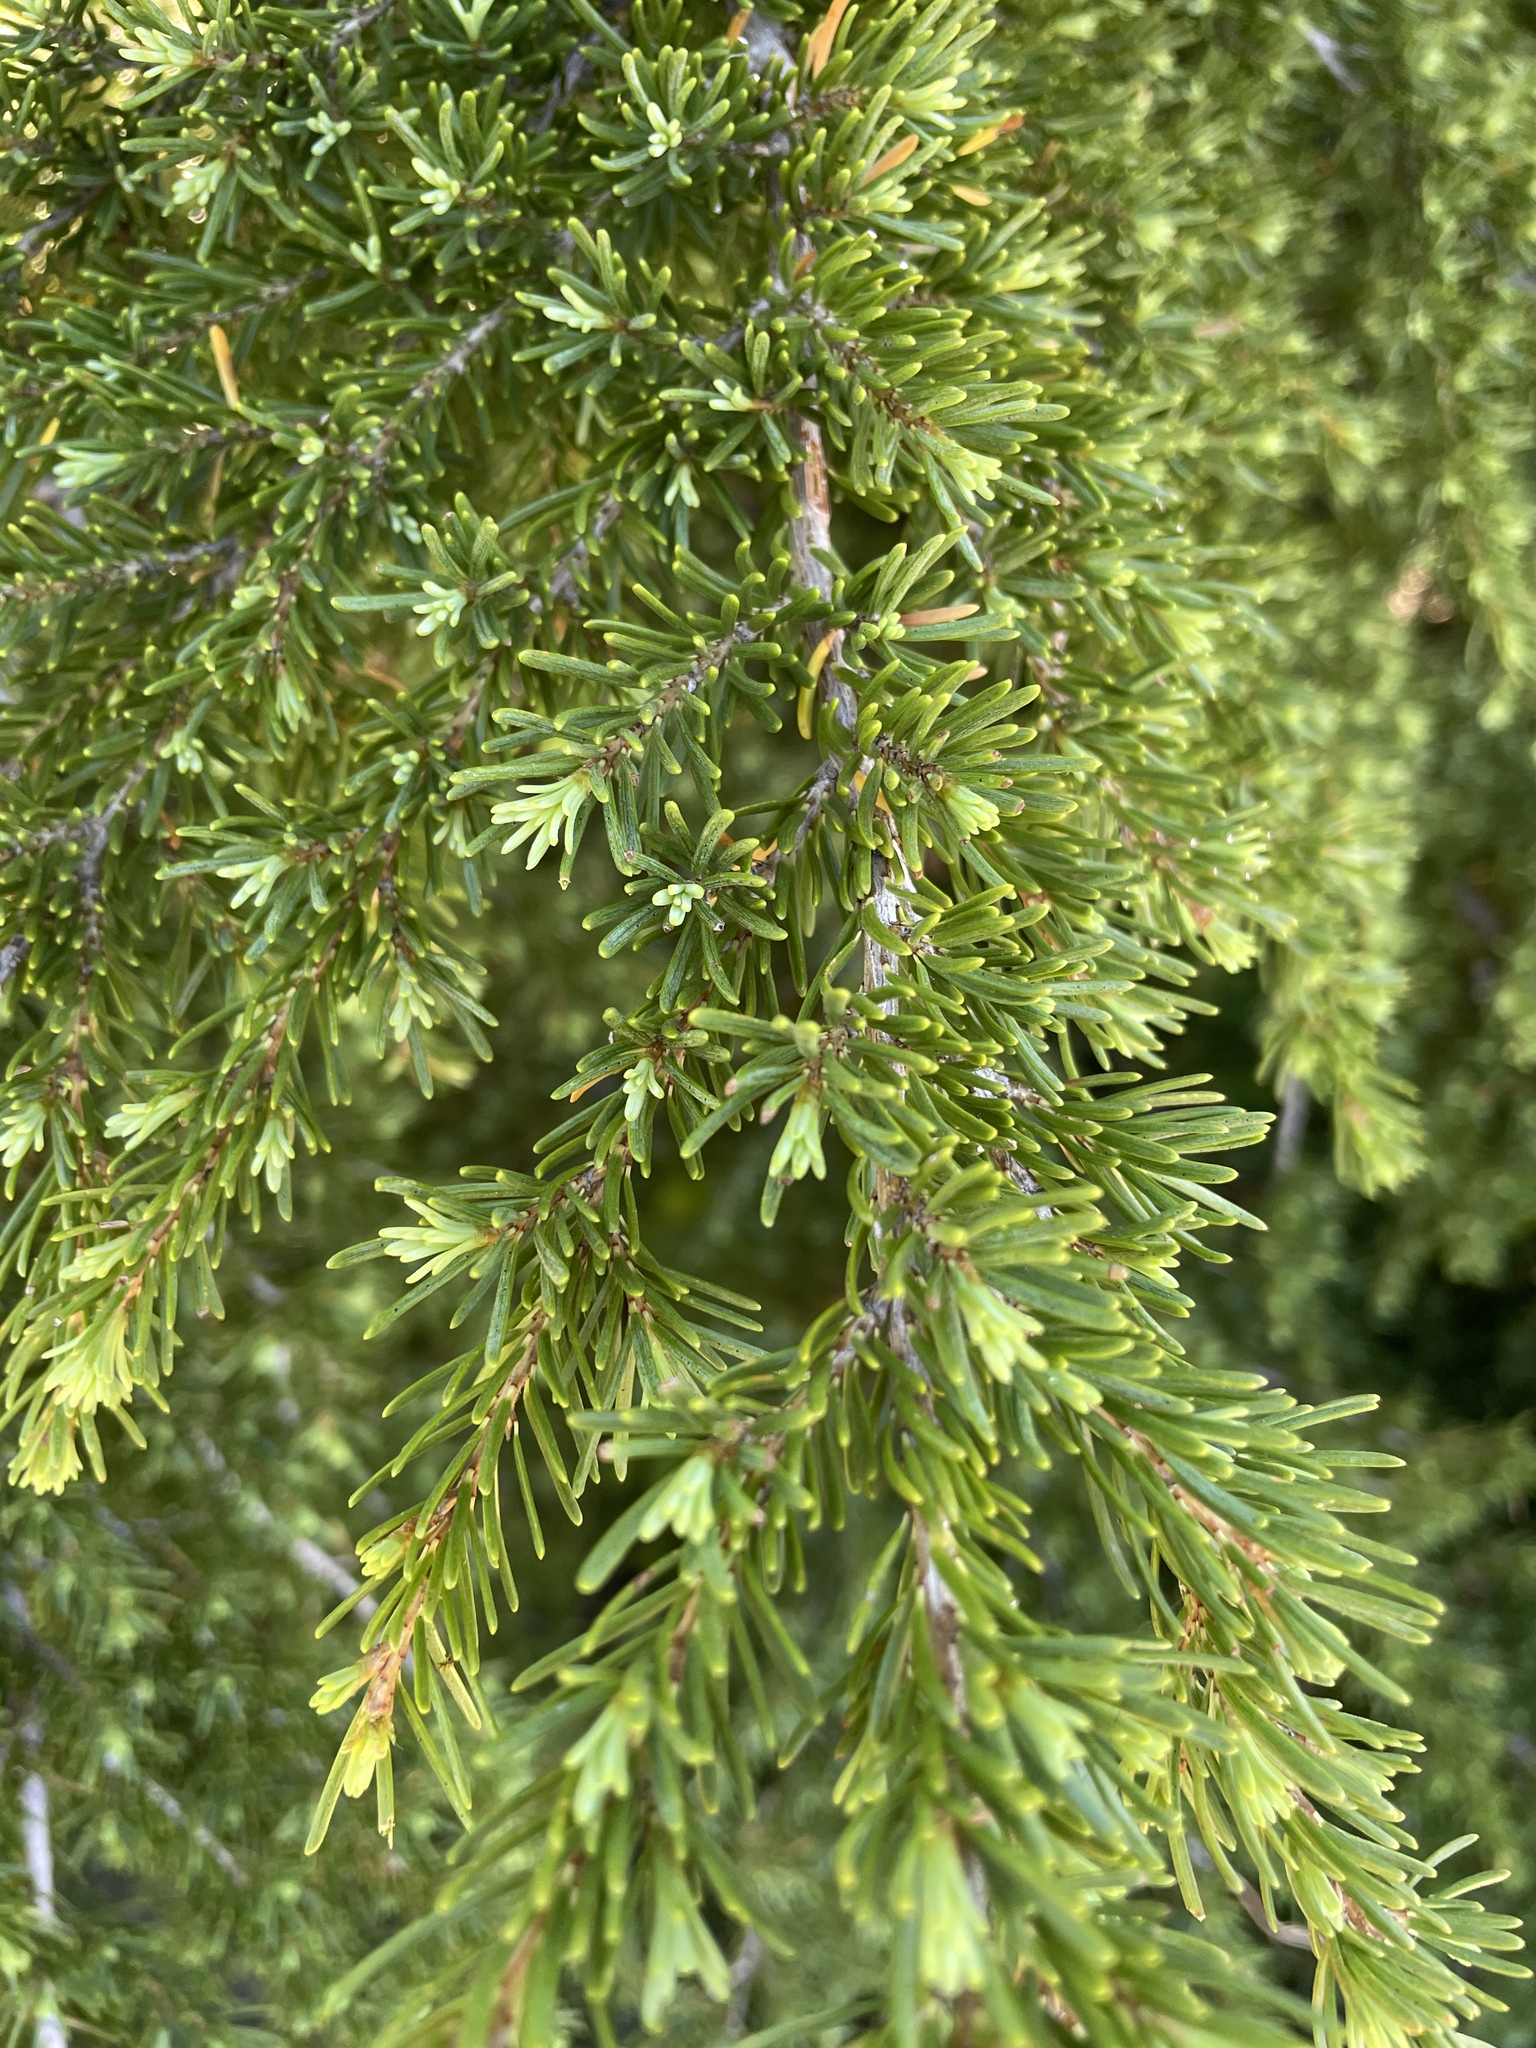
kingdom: Plantae
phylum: Tracheophyta
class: Pinopsida
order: Pinales
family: Pinaceae
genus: Tsuga
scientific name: Tsuga mertensiana
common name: Mountain hemlock
